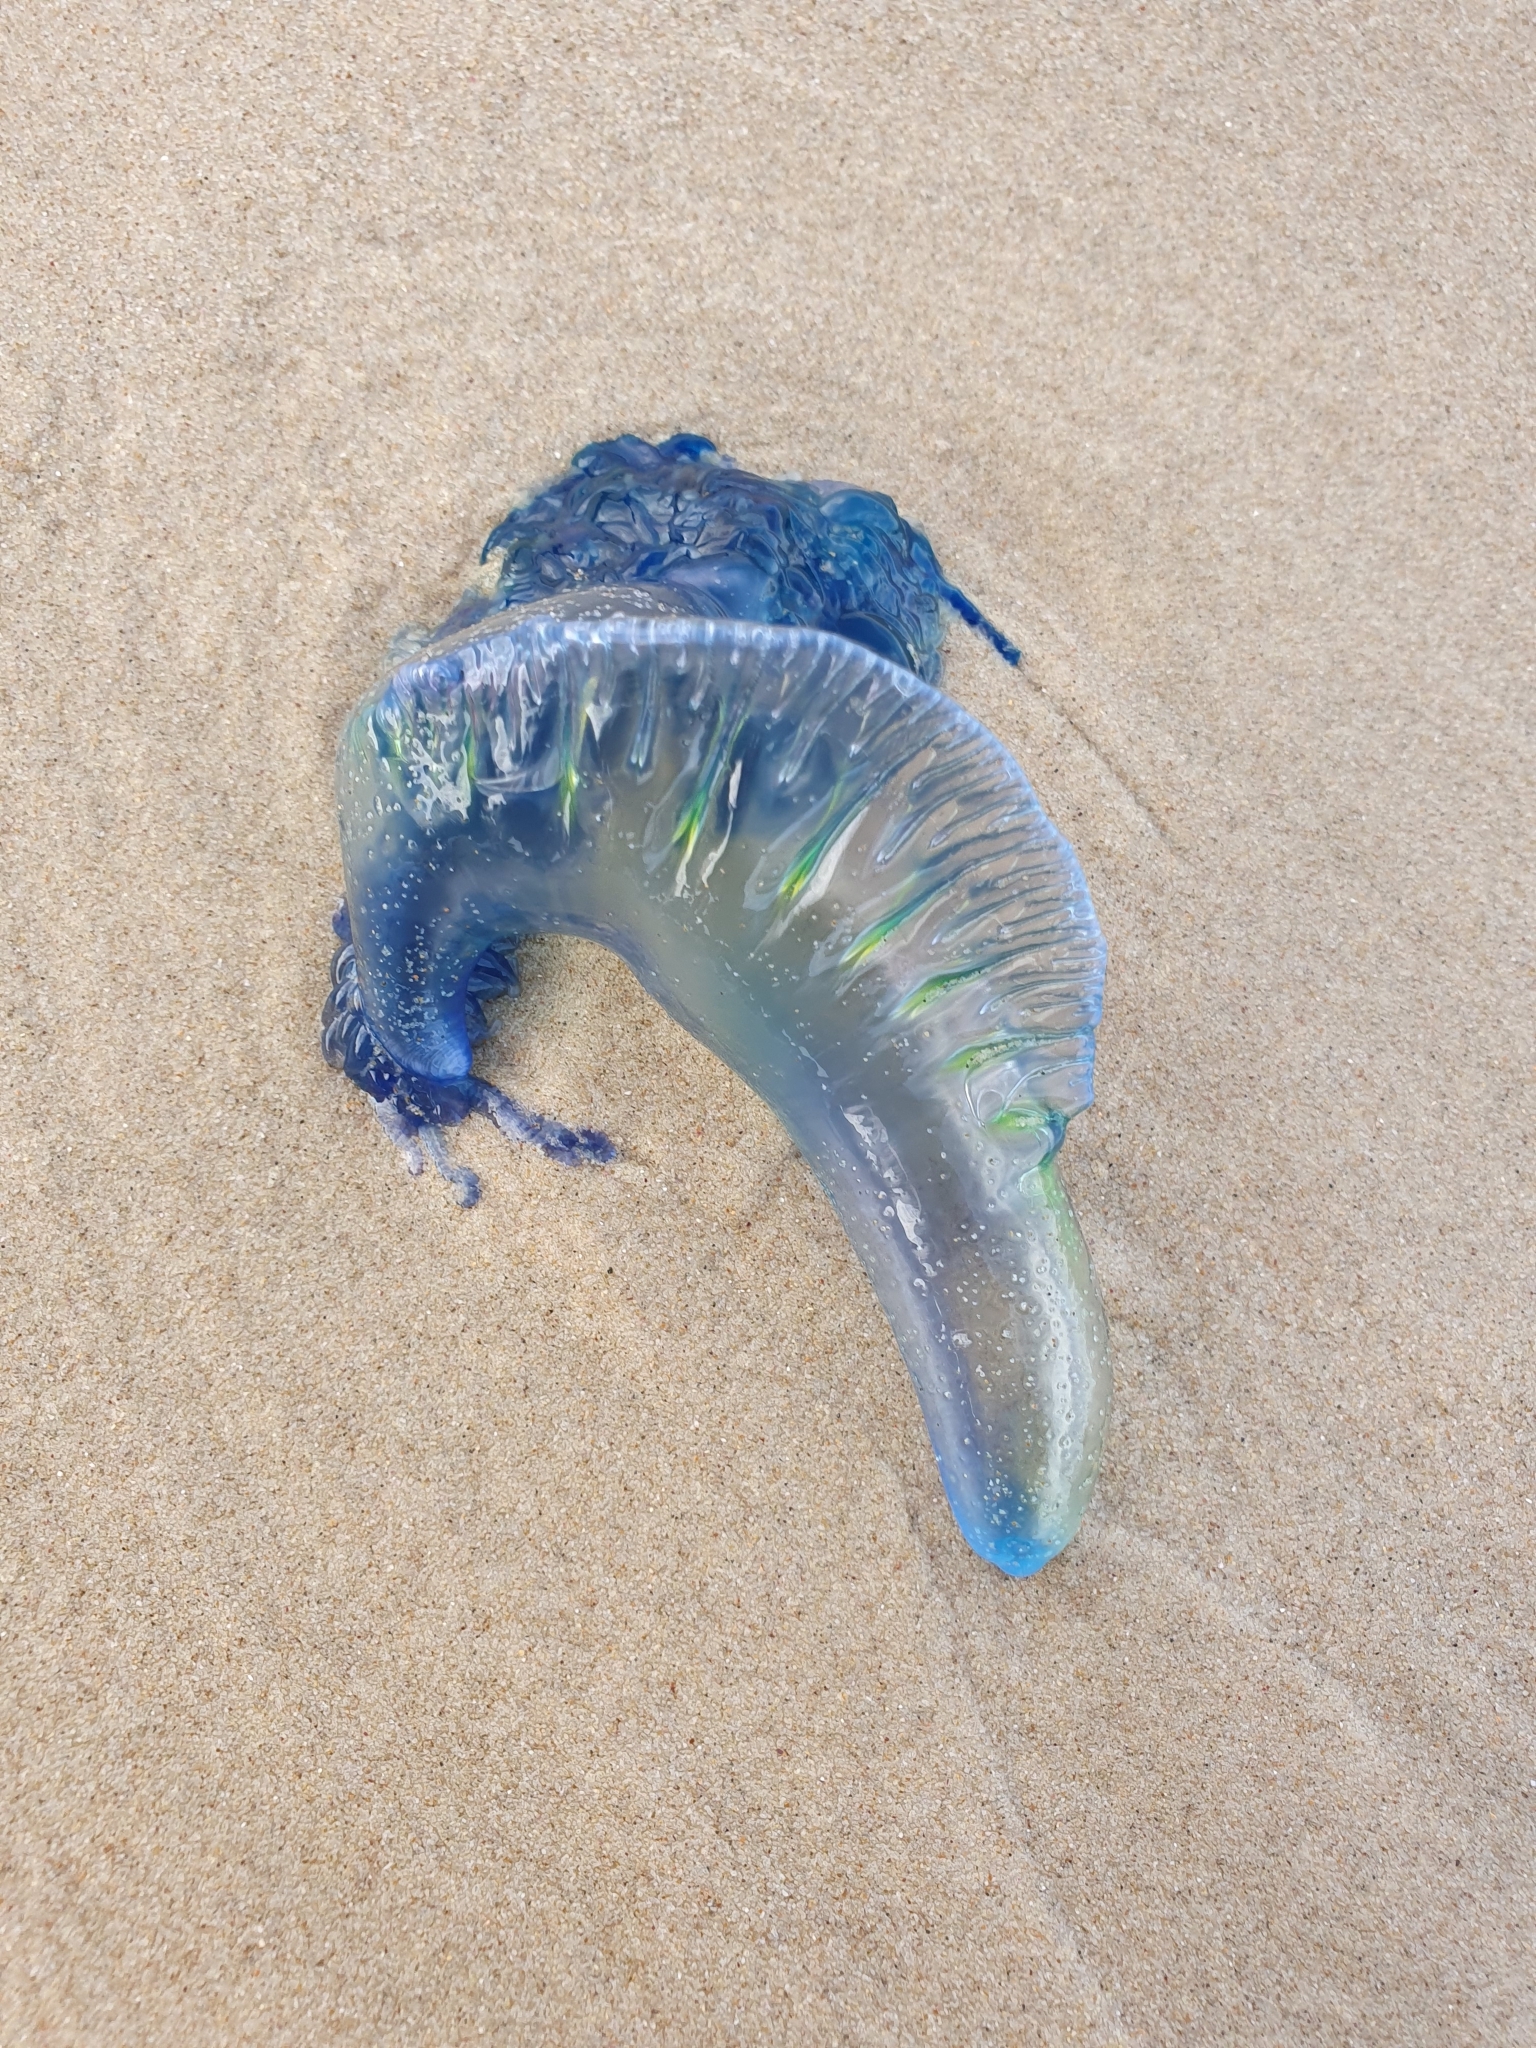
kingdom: Animalia
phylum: Cnidaria
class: Hydrozoa
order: Siphonophorae
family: Physaliidae
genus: Physalia
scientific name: Physalia physalis
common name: Portuguese man-of-war
